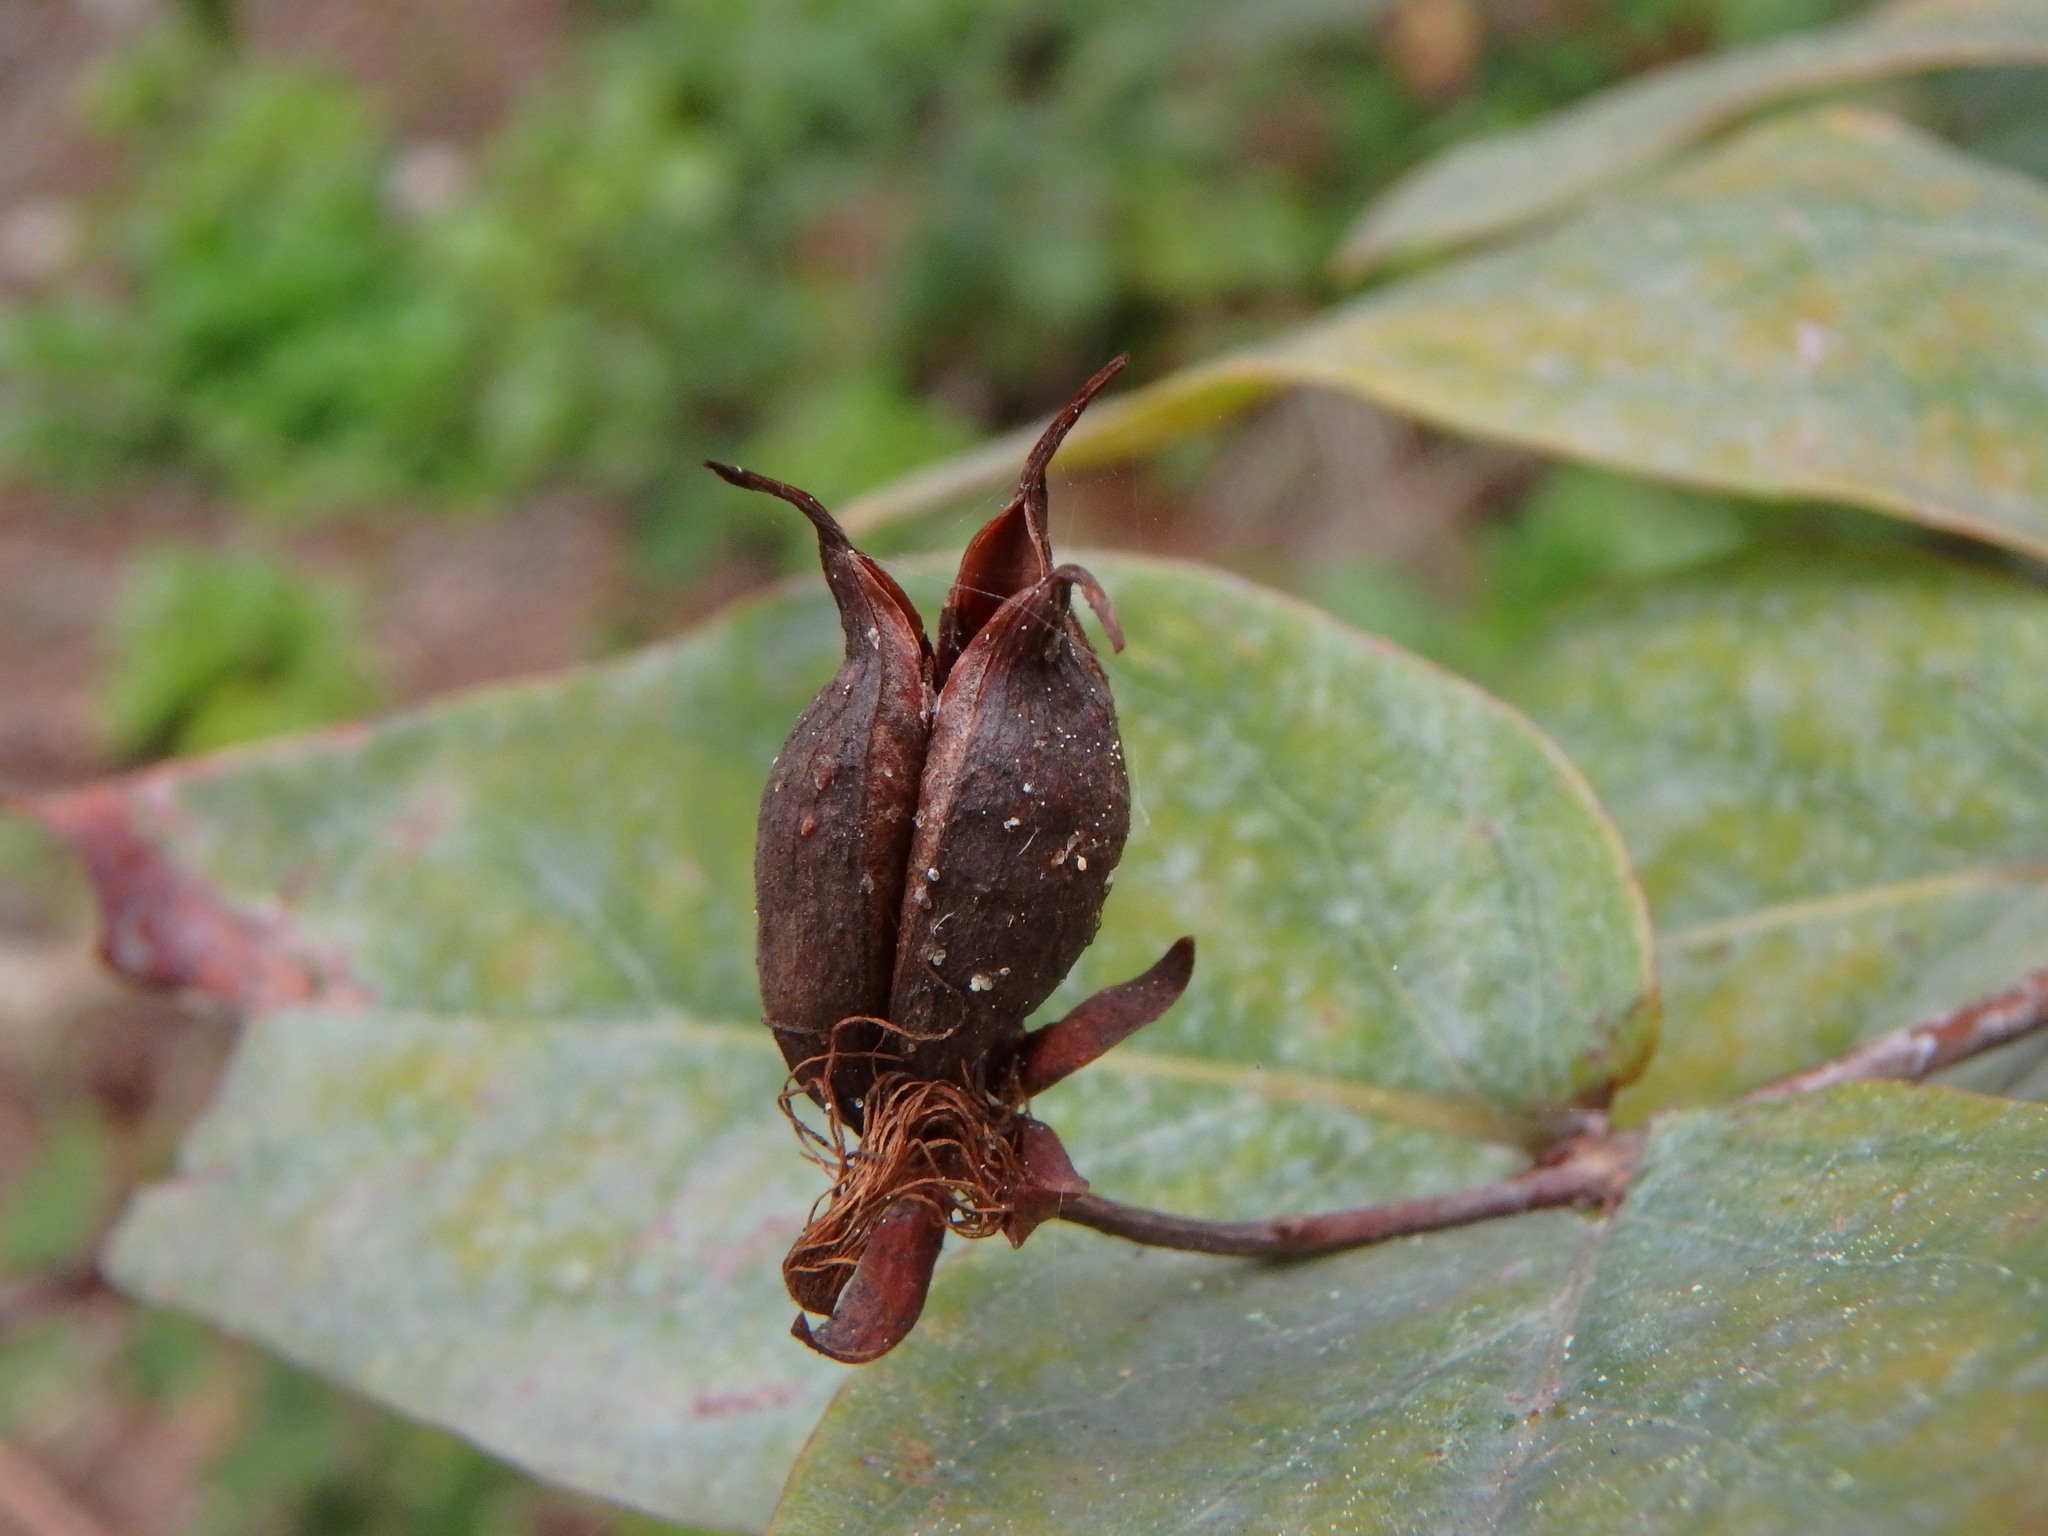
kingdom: Plantae
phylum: Tracheophyta
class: Magnoliopsida
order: Malpighiales
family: Hypericaceae
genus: Hypericum
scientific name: Hypericum grandifolium
